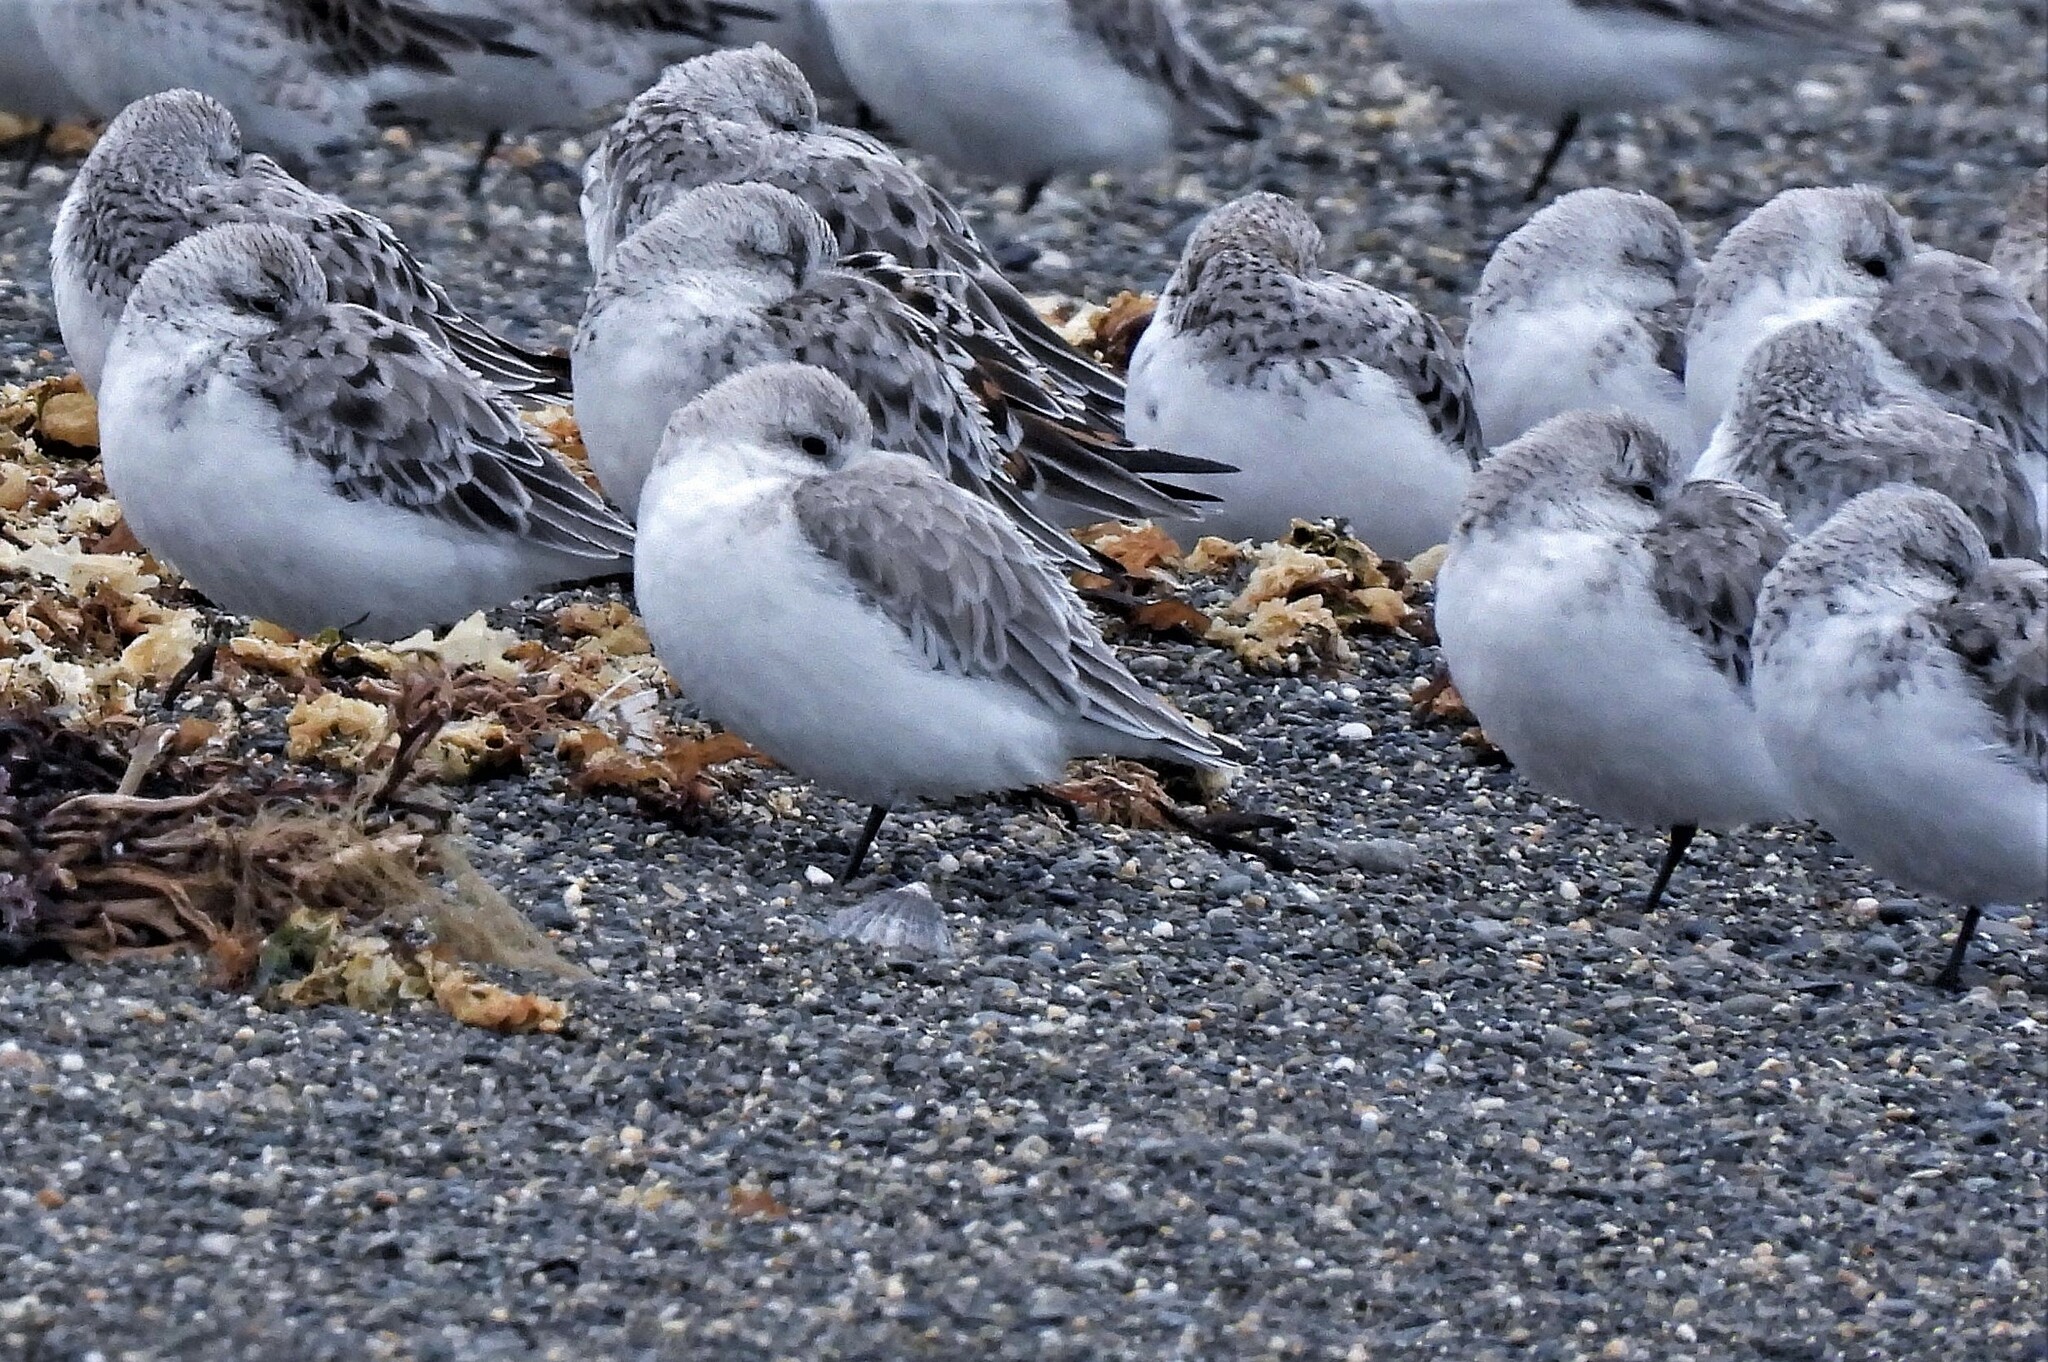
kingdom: Animalia
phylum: Chordata
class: Aves
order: Charadriiformes
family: Scolopacidae
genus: Calidris
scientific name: Calidris alba
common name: Sanderling
